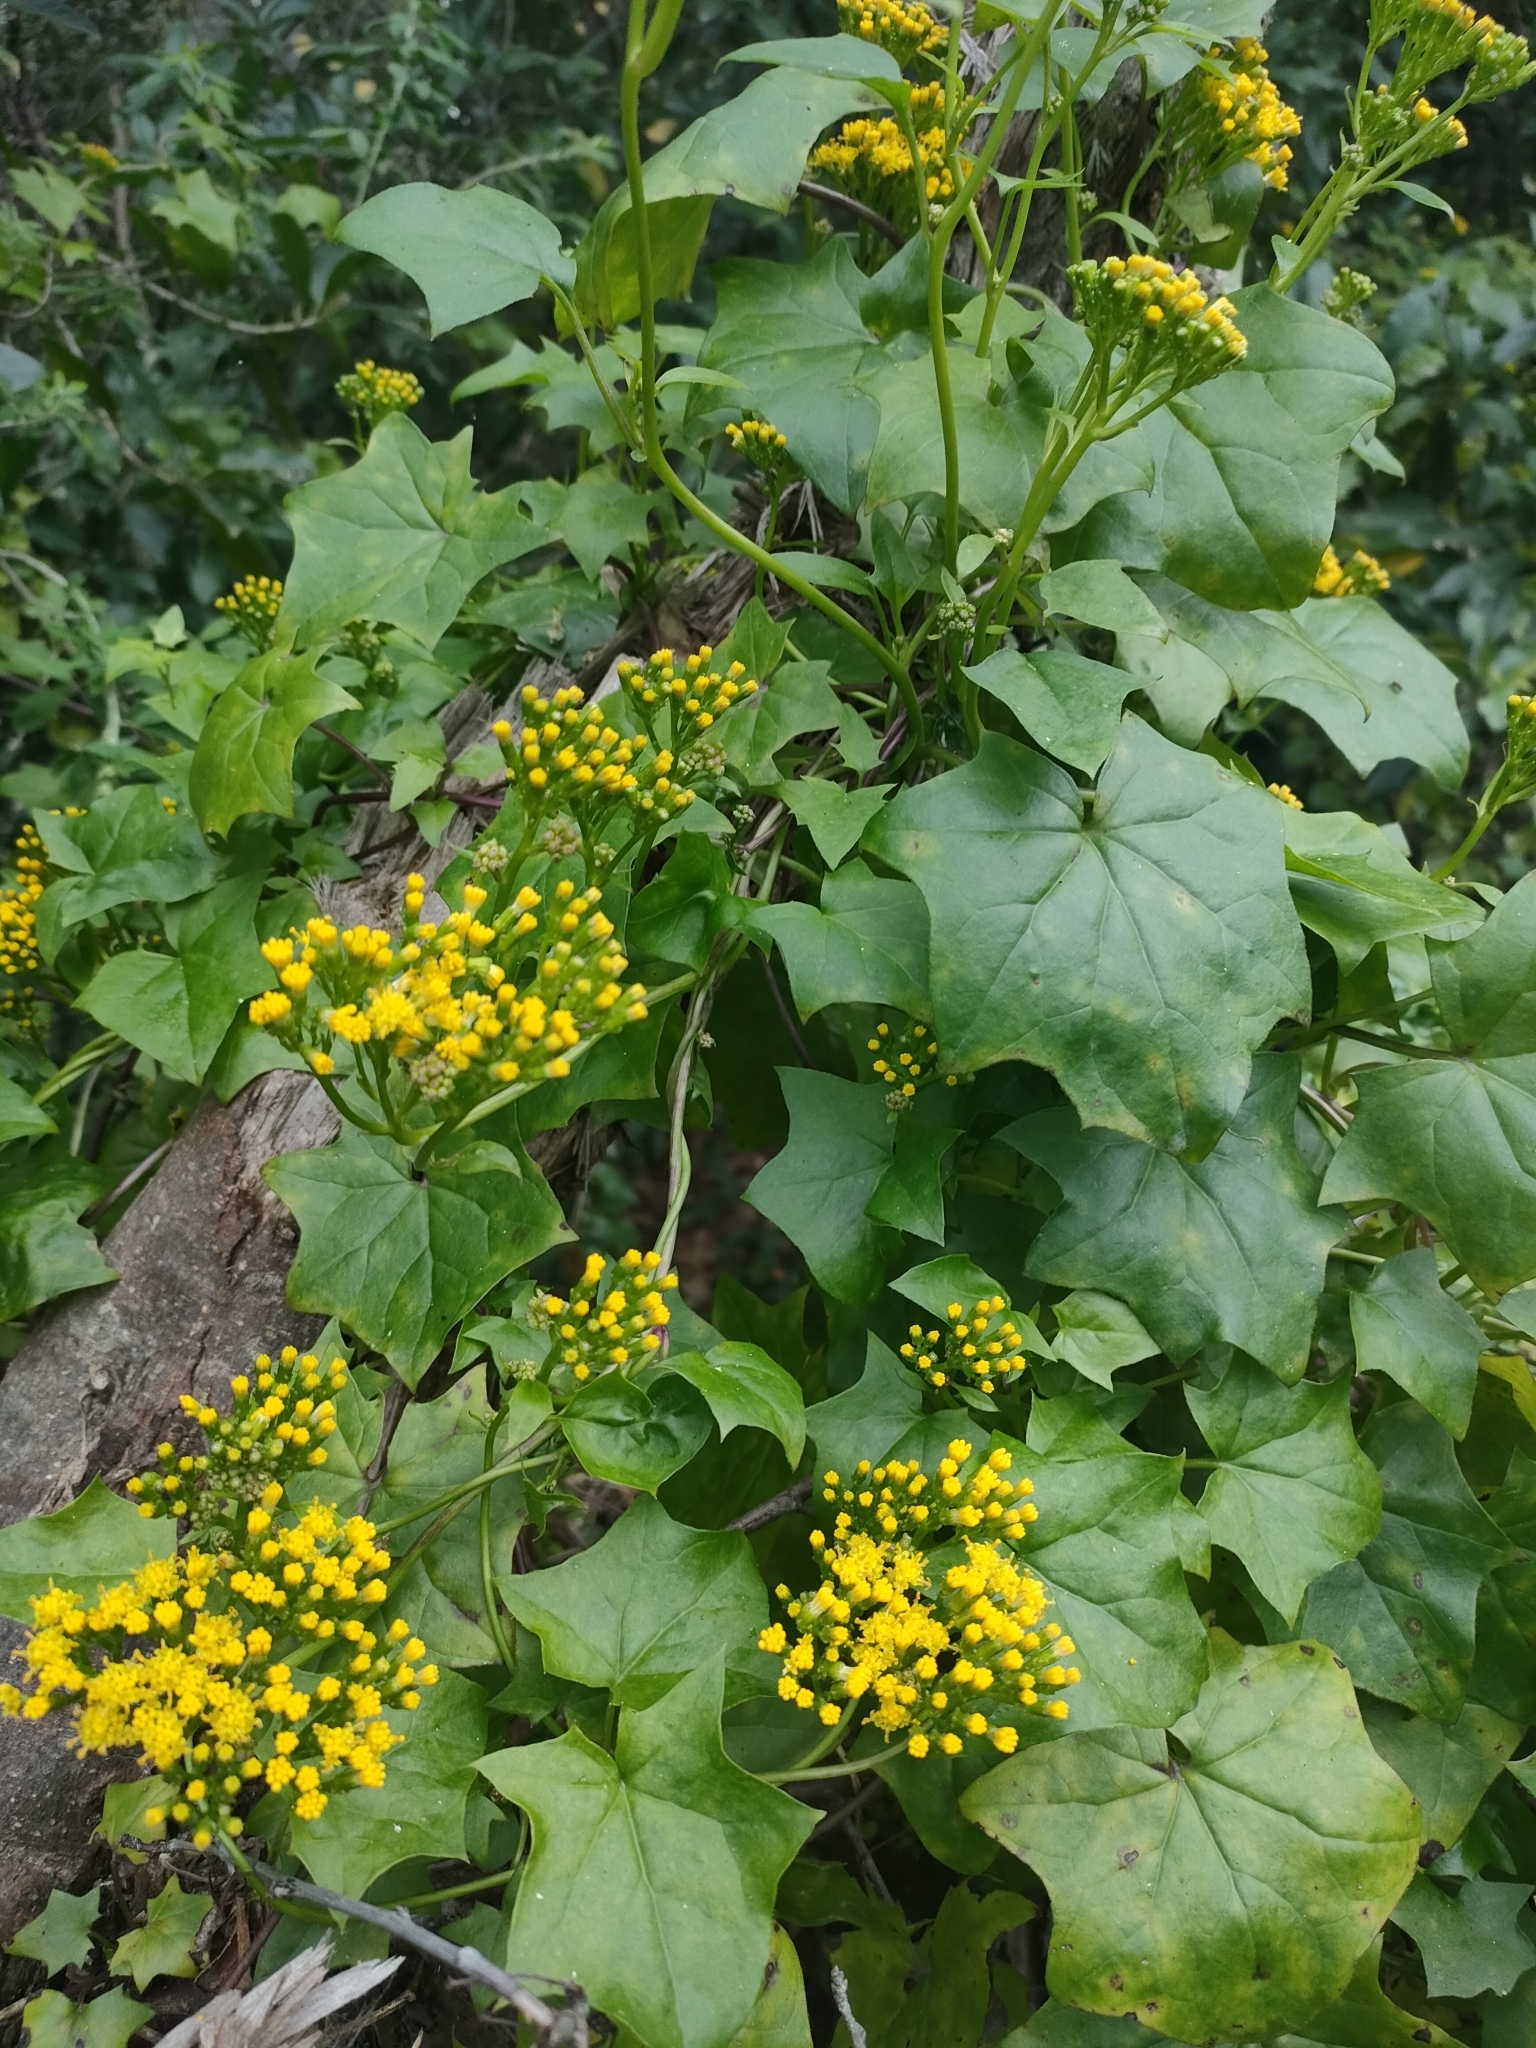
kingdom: Plantae
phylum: Tracheophyta
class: Magnoliopsida
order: Asterales
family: Asteraceae
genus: Delairea
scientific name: Delairea odorata
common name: Cape-ivy
